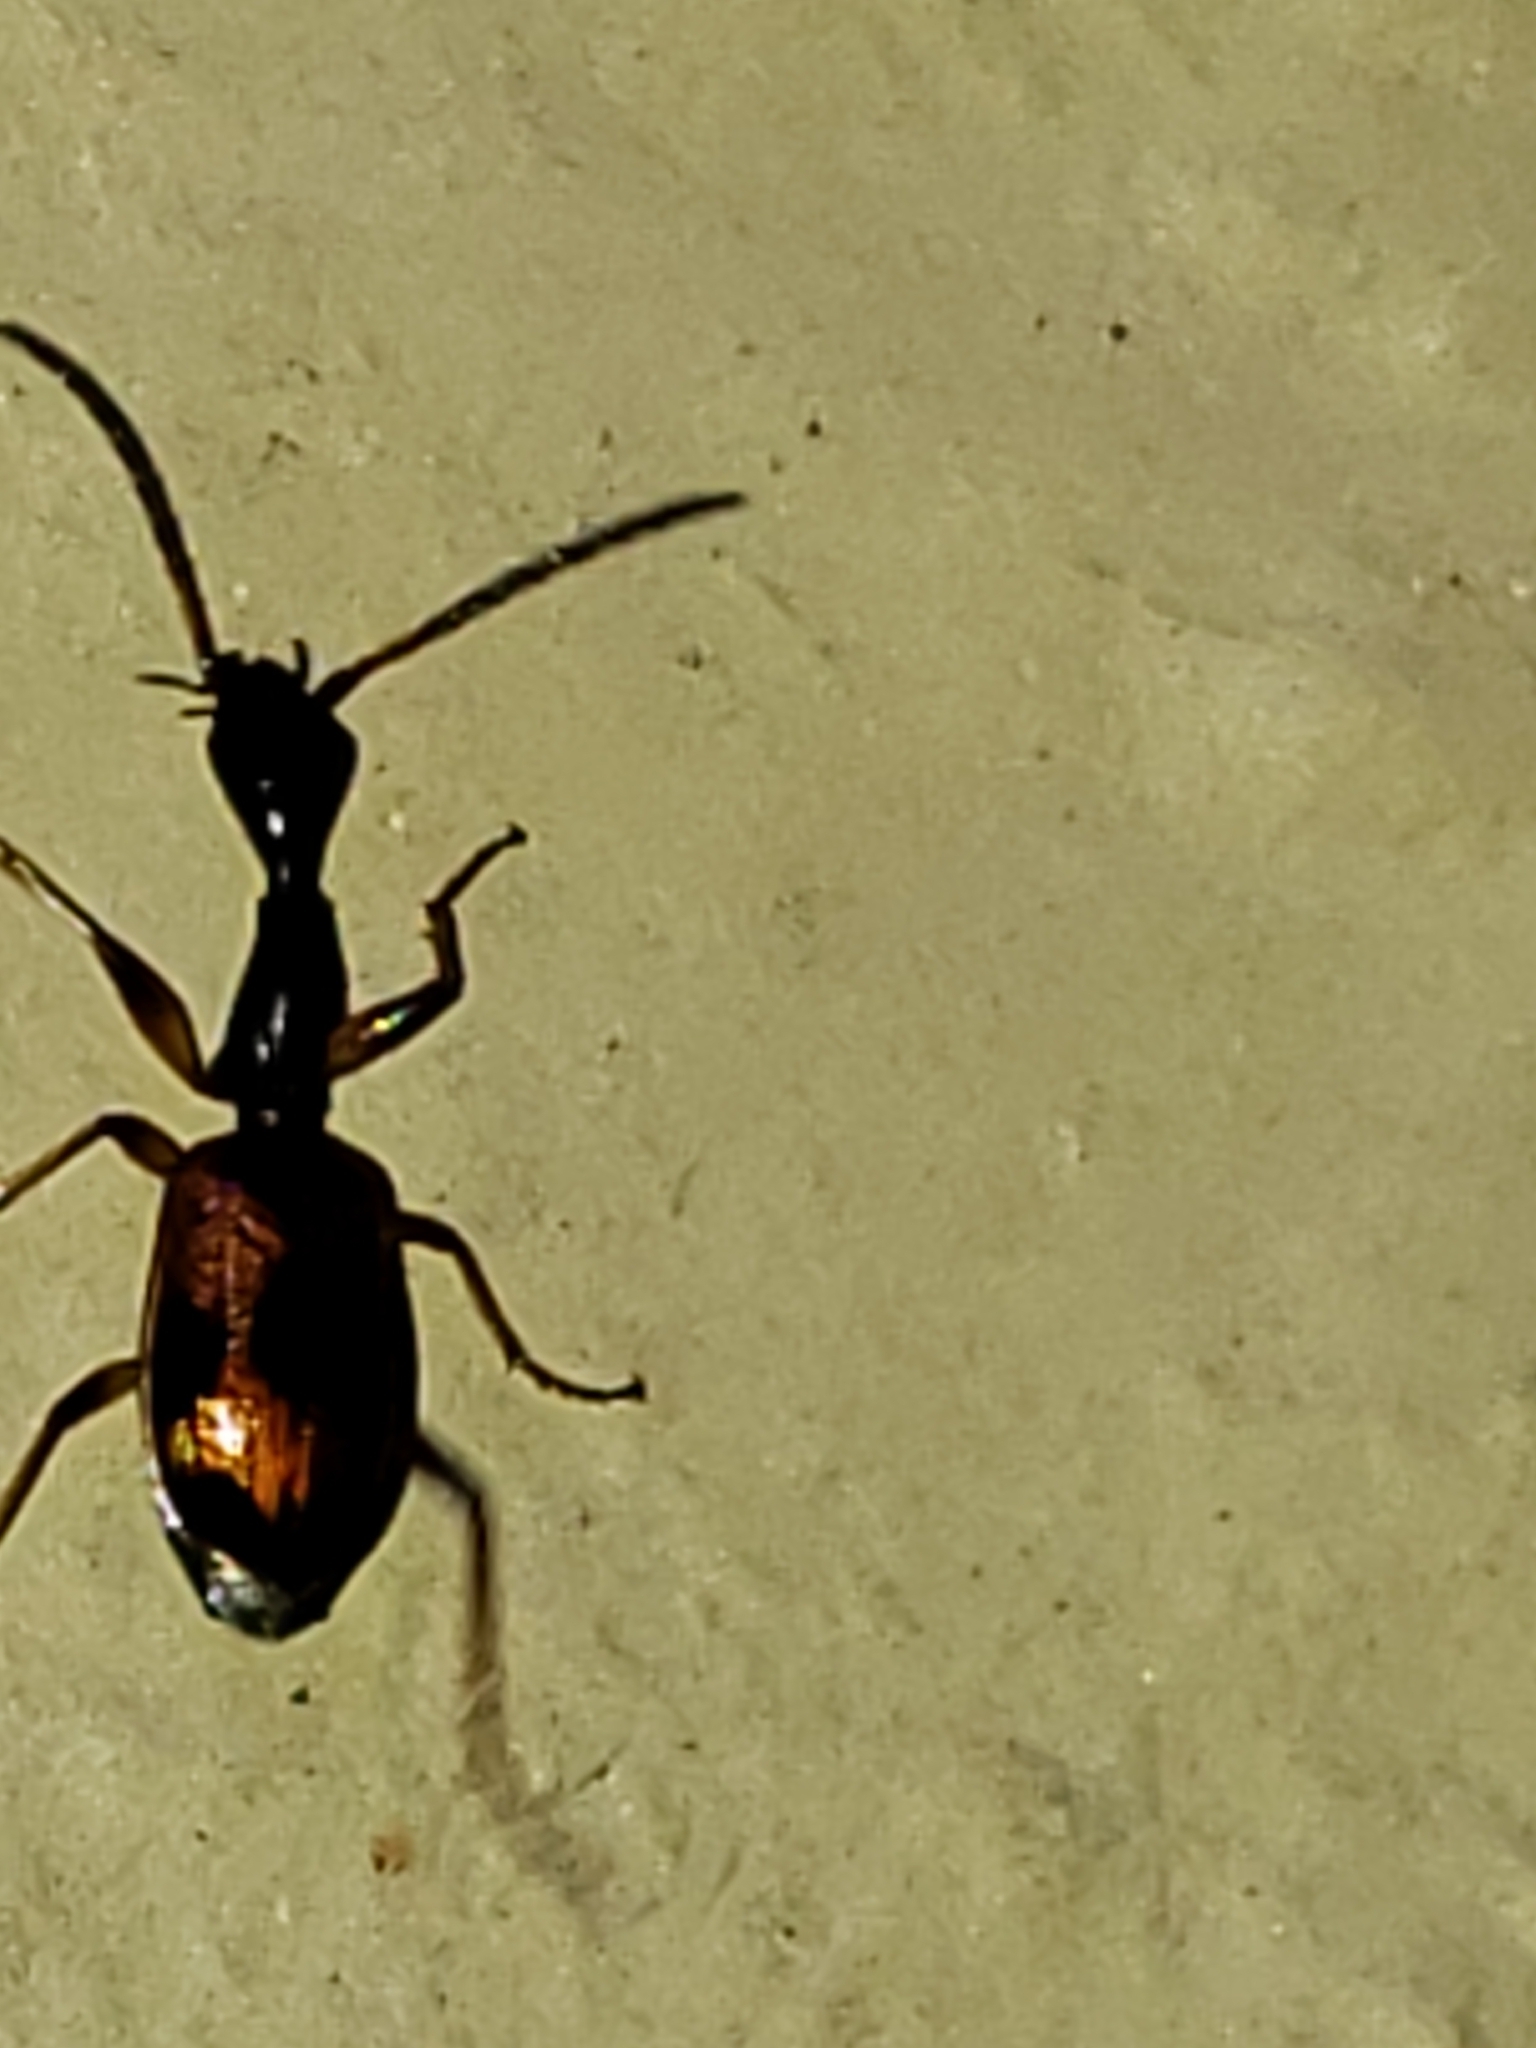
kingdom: Animalia
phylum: Arthropoda
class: Insecta
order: Coleoptera
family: Carabidae
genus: Colliuris
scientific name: Colliuris pensylvanica
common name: Long-necked ground beetle
